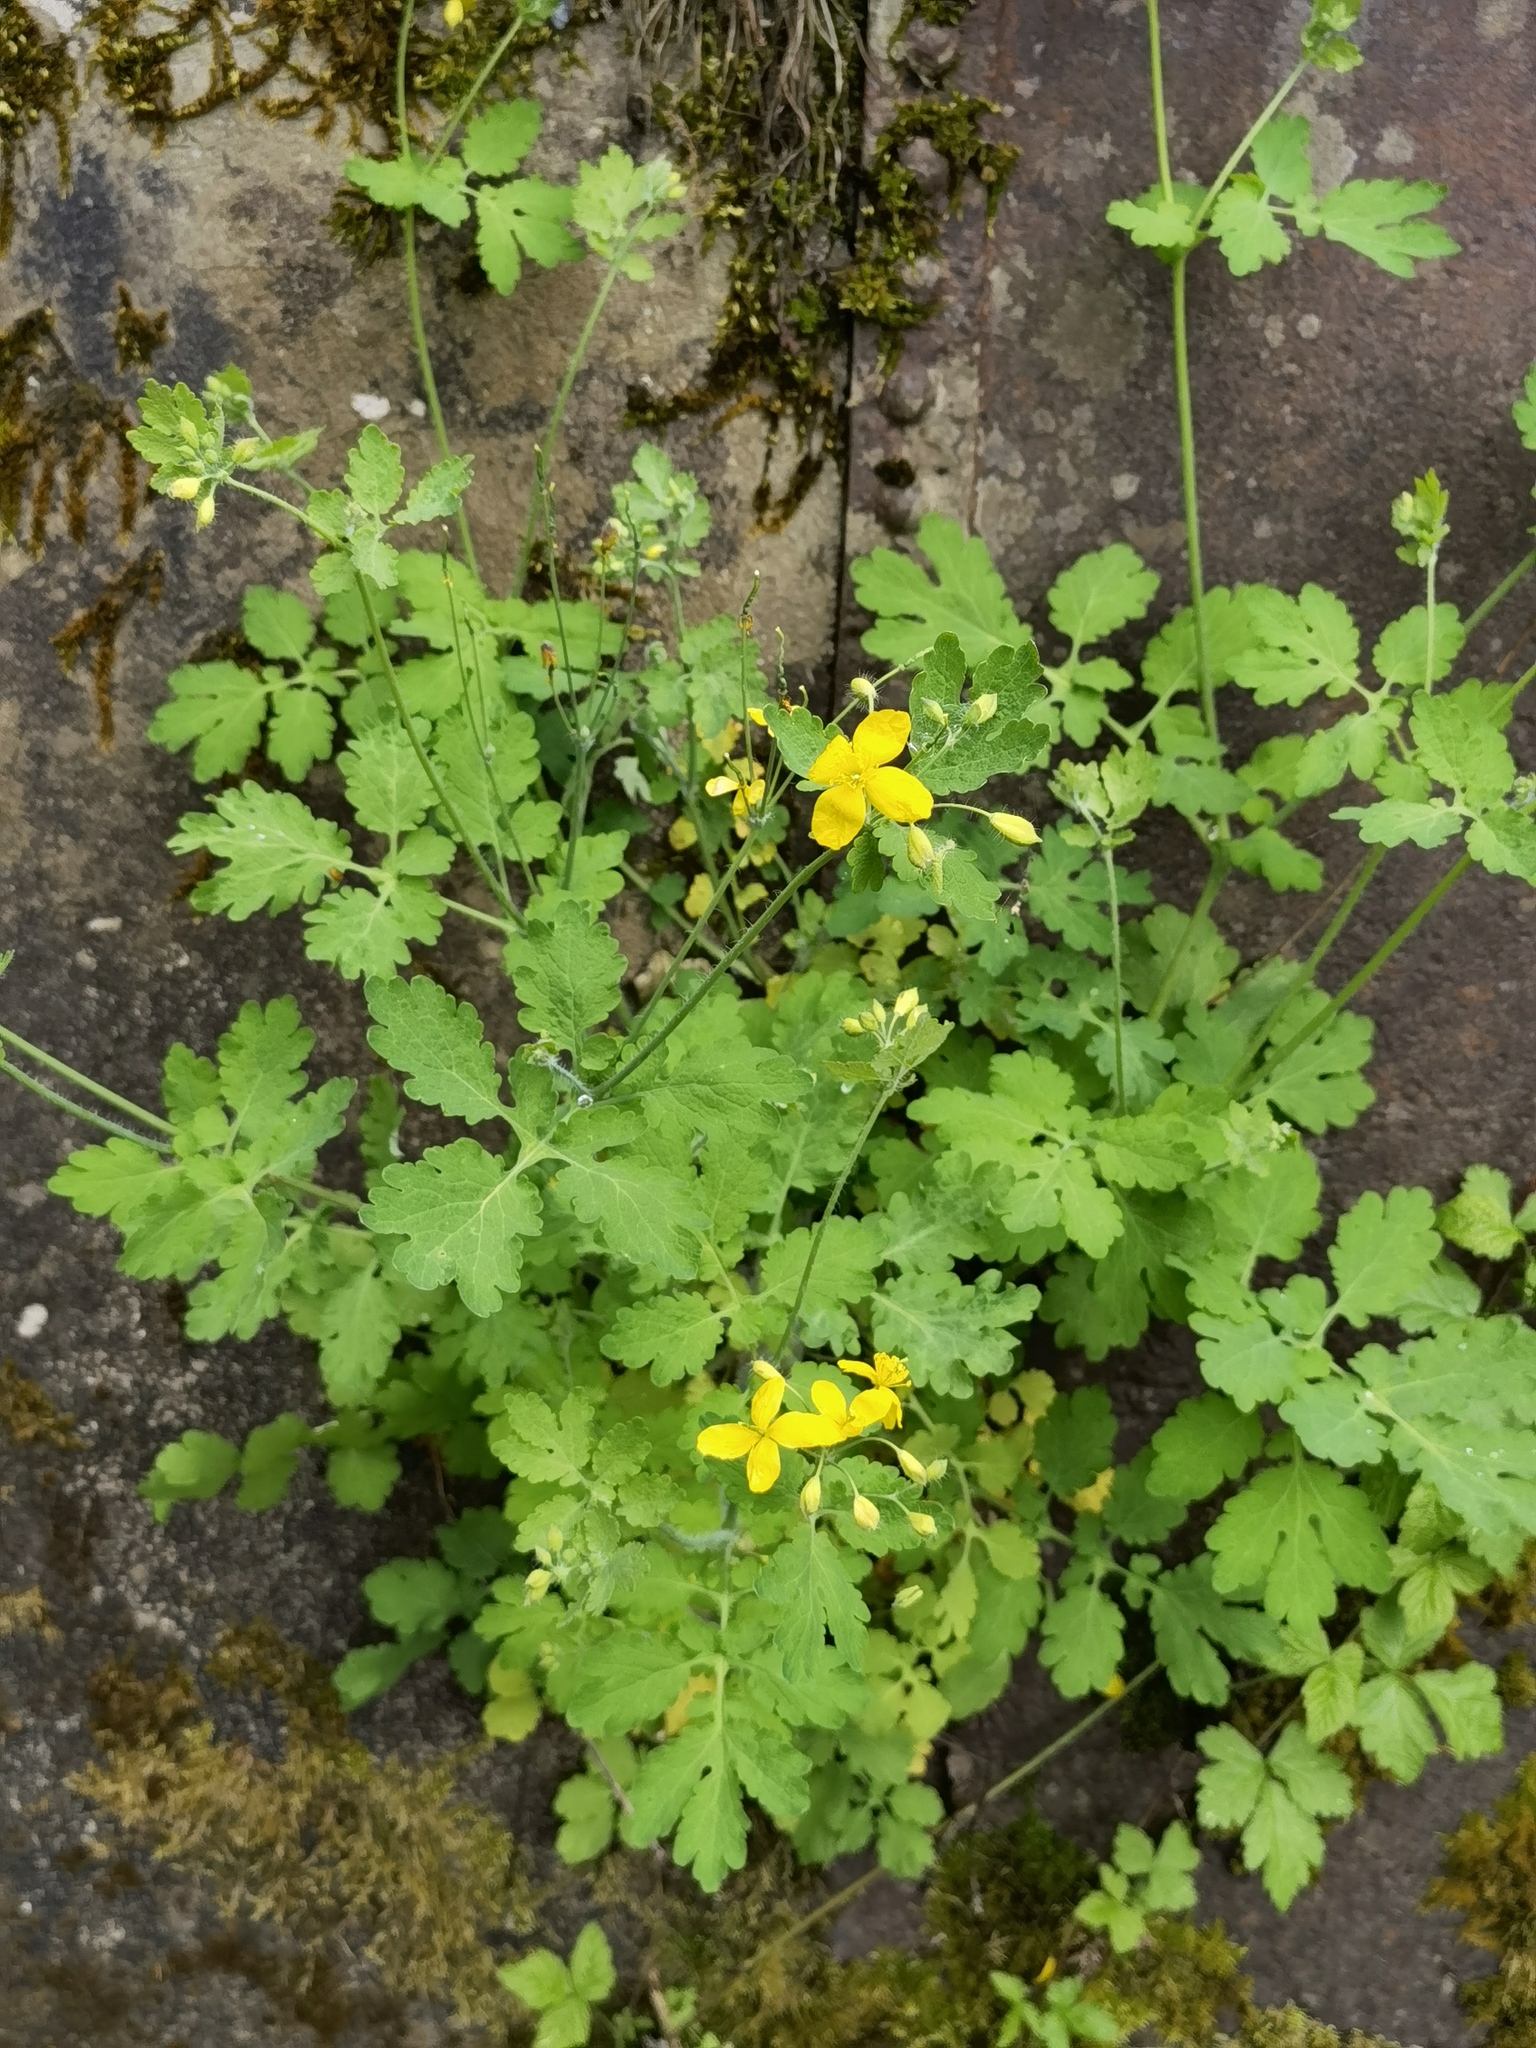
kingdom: Plantae
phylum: Tracheophyta
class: Magnoliopsida
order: Ranunculales
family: Papaveraceae
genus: Chelidonium
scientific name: Chelidonium majus
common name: Greater celandine
